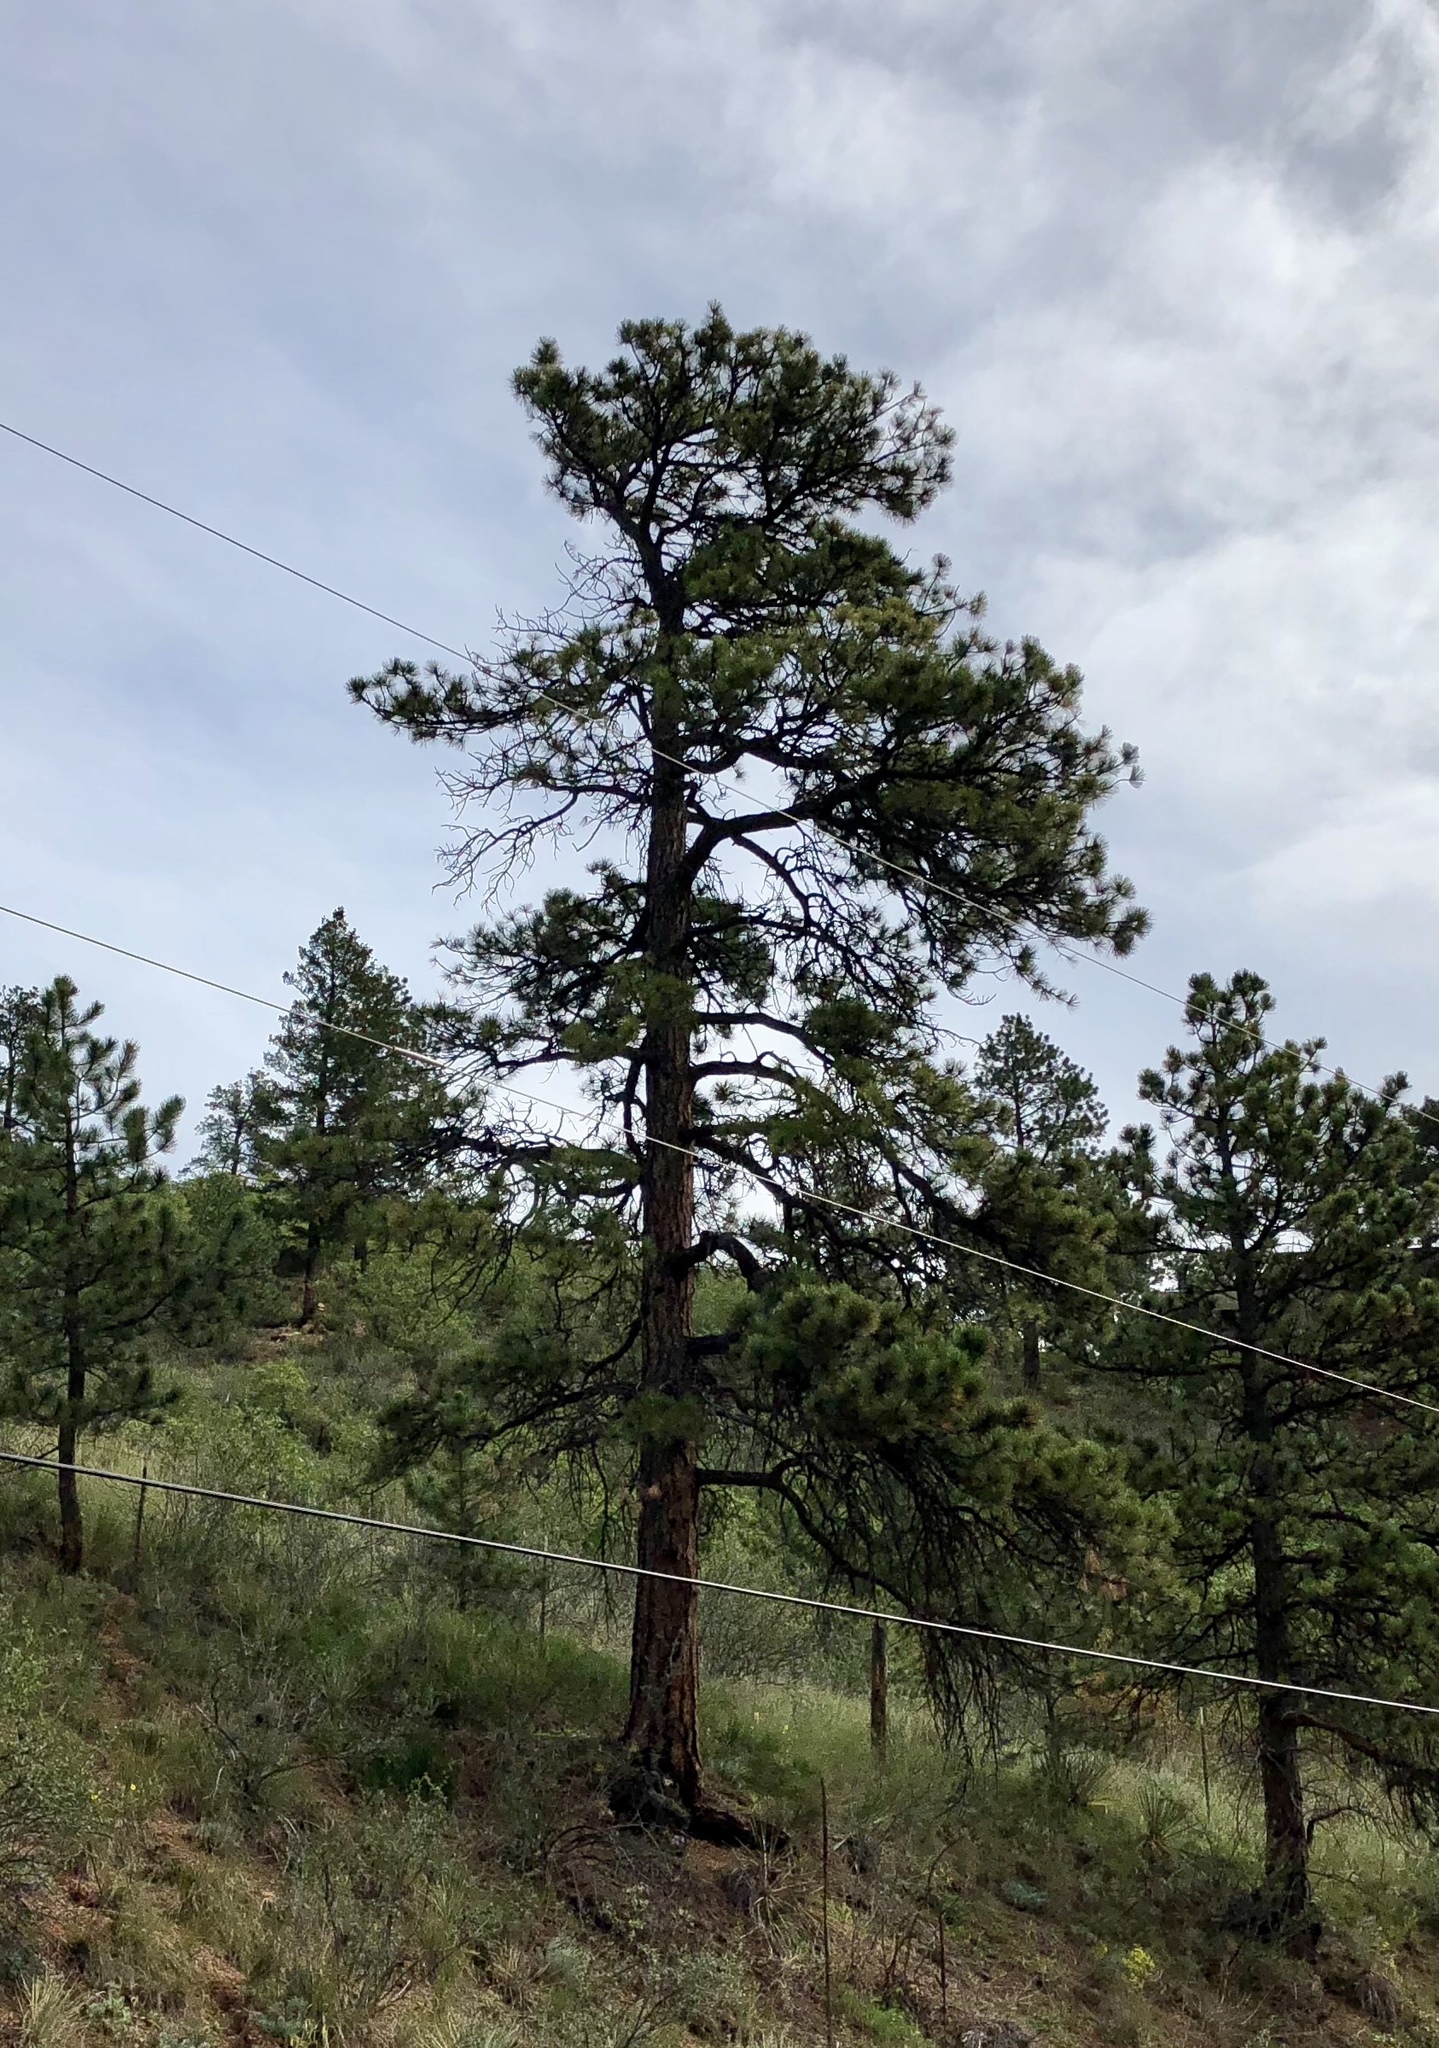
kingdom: Plantae
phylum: Tracheophyta
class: Pinopsida
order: Pinales
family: Pinaceae
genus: Pinus
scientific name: Pinus ponderosa
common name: Western yellow-pine
